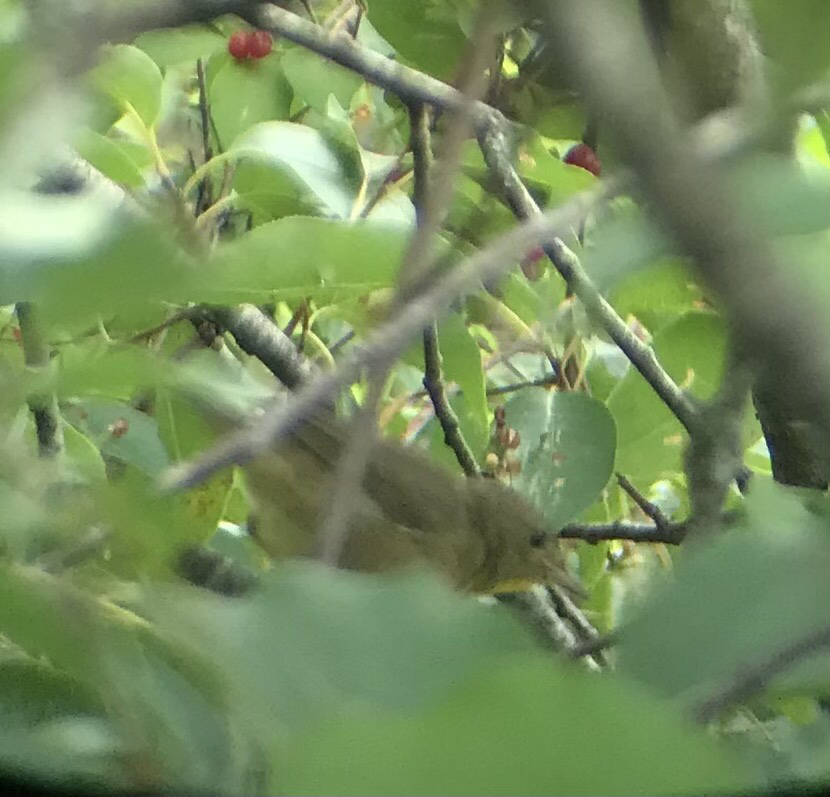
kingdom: Animalia
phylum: Chordata
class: Aves
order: Passeriformes
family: Parulidae
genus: Geothlypis
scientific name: Geothlypis trichas
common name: Common yellowthroat
